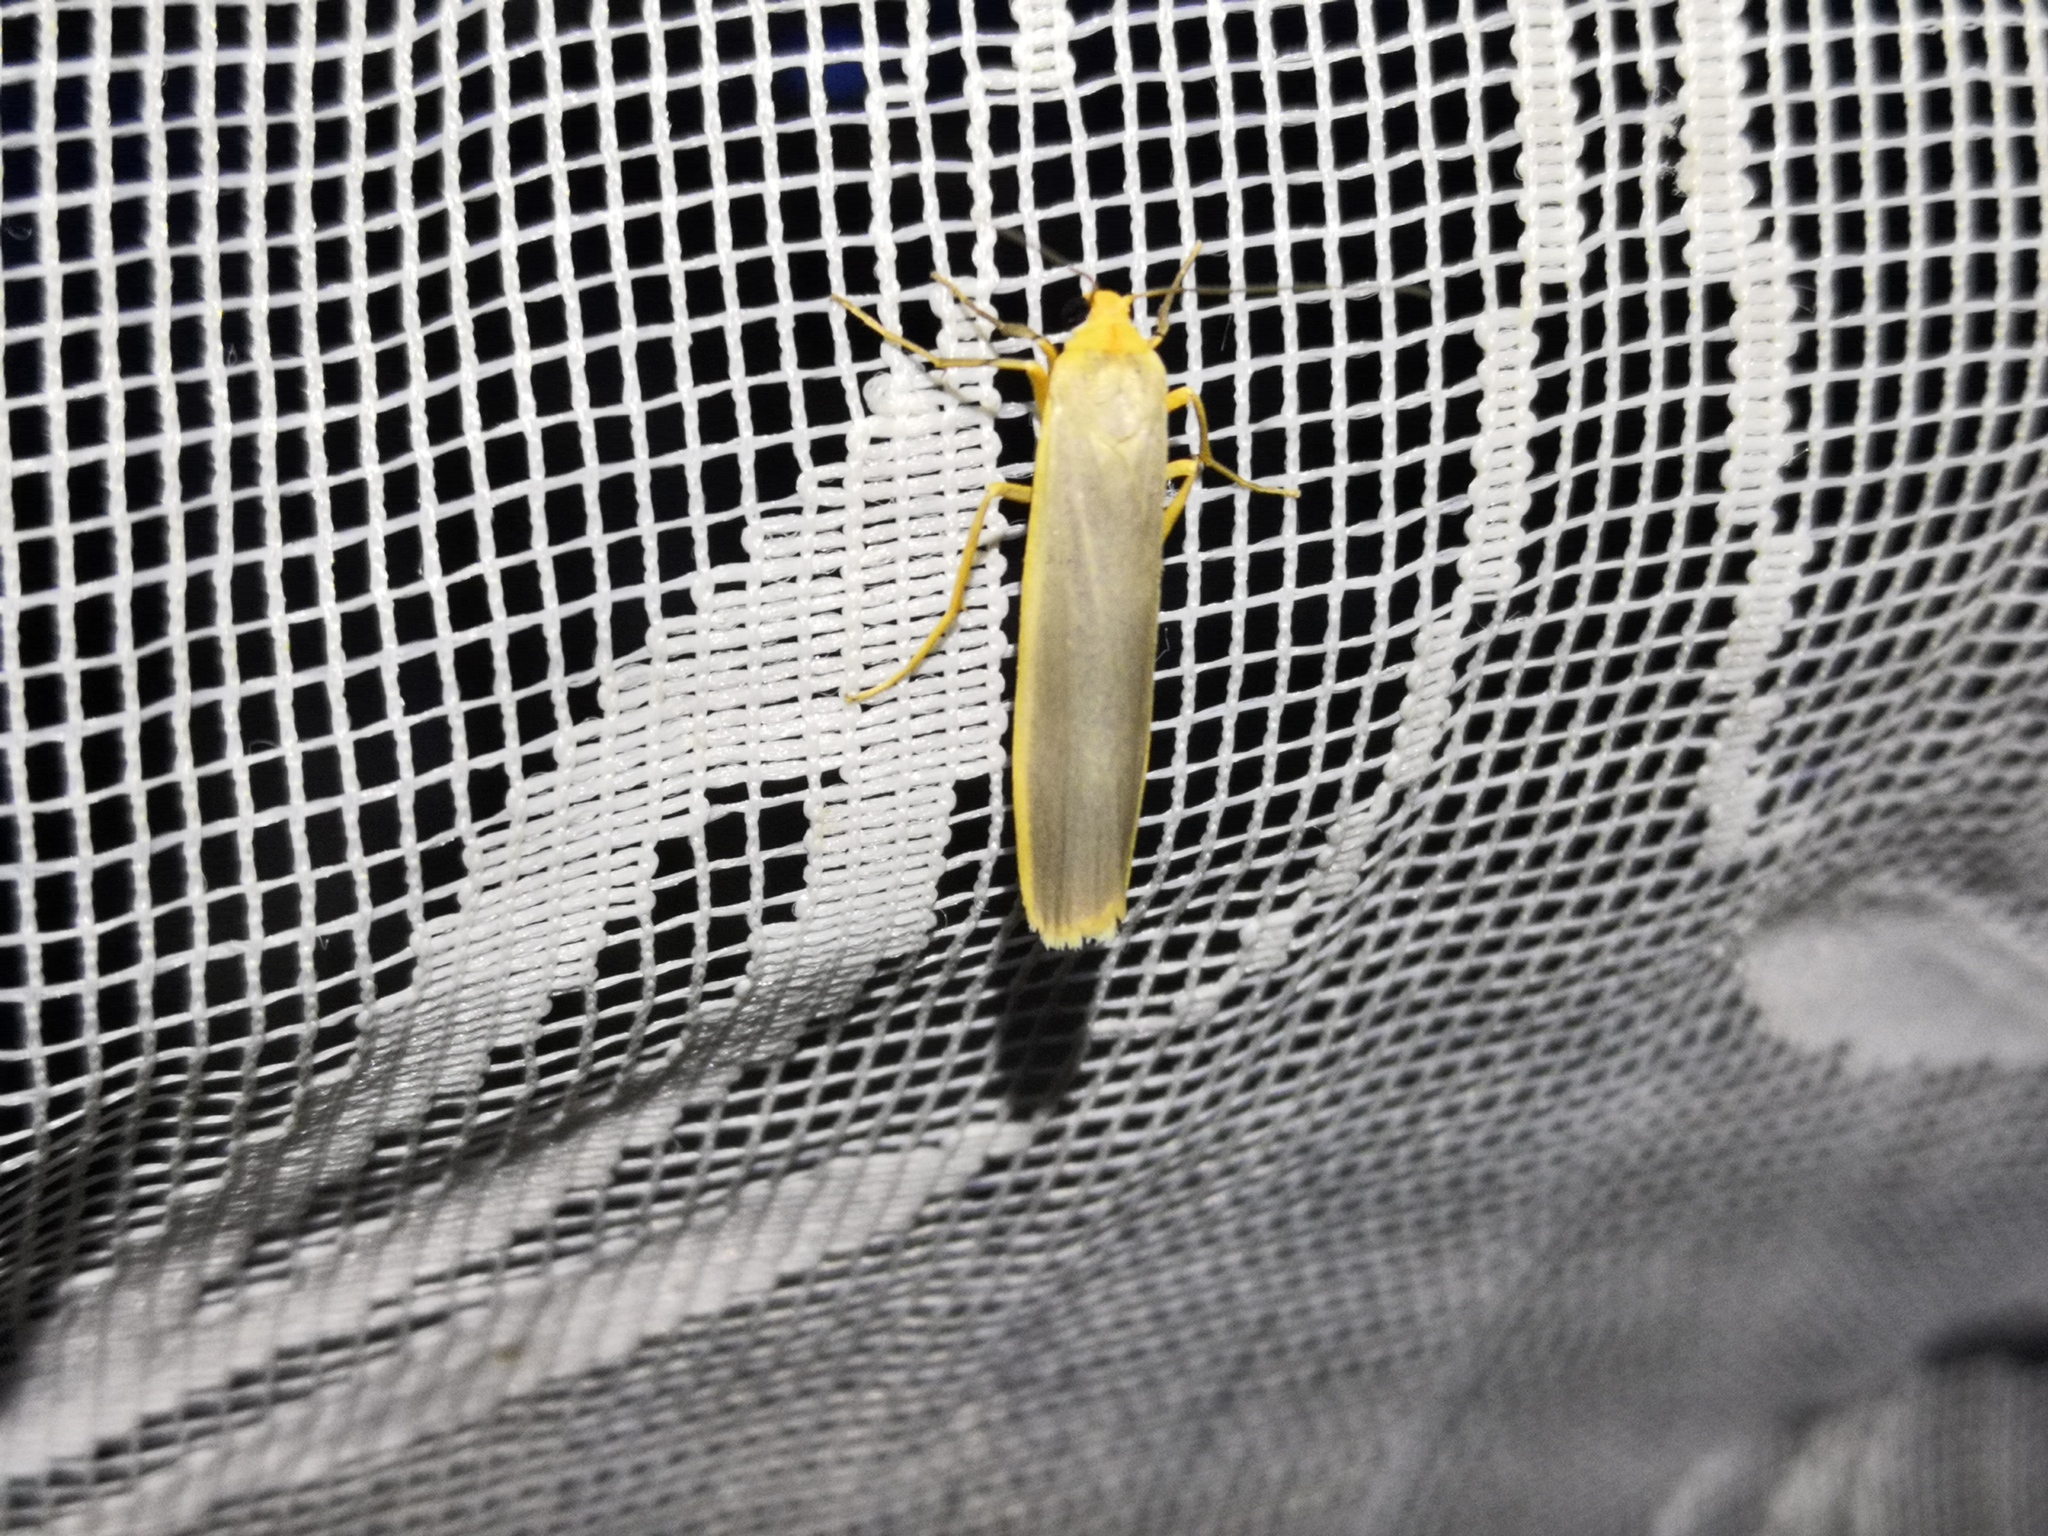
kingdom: Animalia
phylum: Arthropoda
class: Insecta
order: Lepidoptera
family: Erebidae
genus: Manulea
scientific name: Manulea complana
